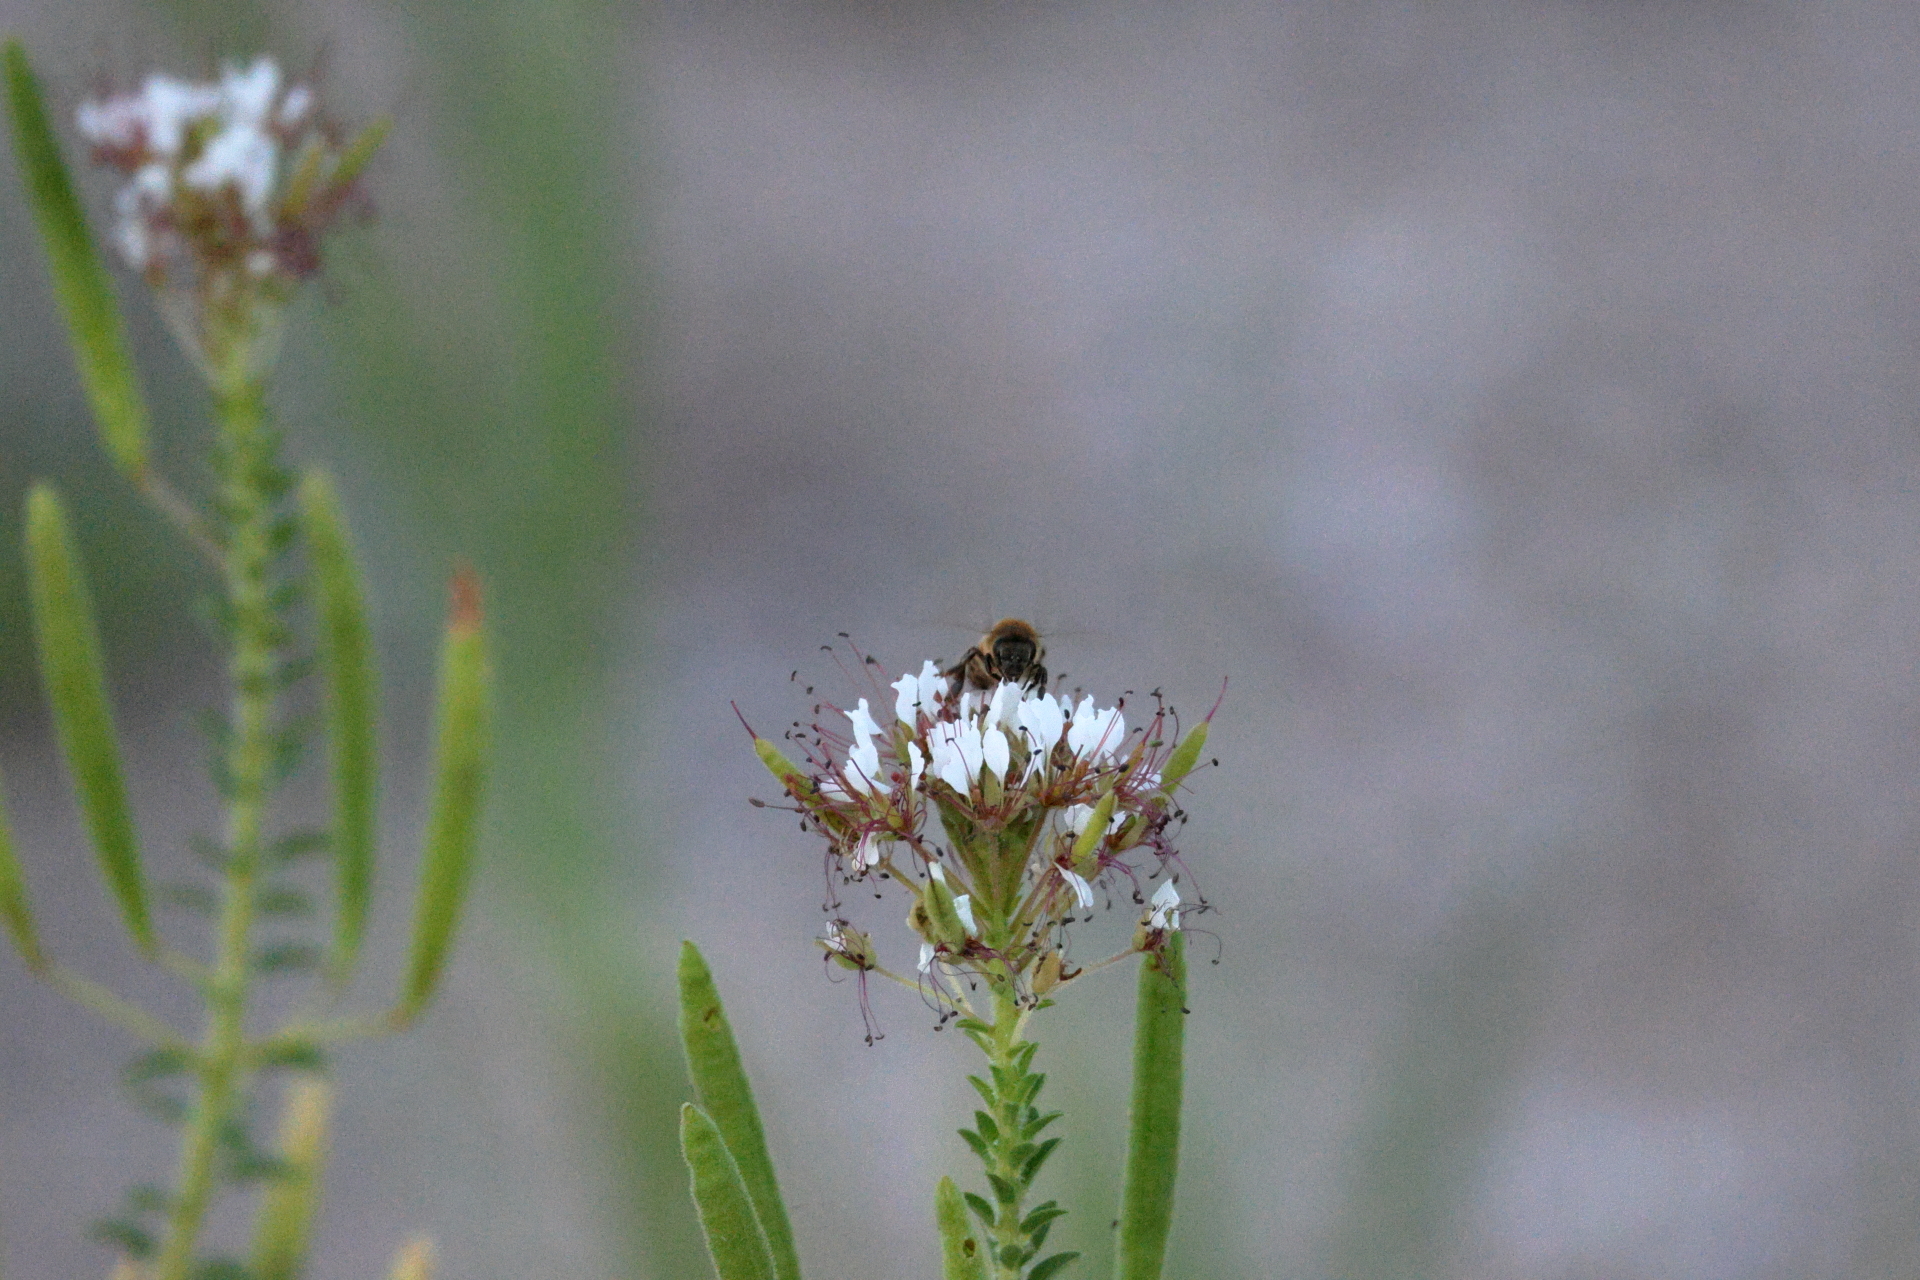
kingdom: Animalia
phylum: Arthropoda
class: Insecta
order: Hymenoptera
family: Apidae
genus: Apis
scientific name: Apis mellifera
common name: Honey bee
